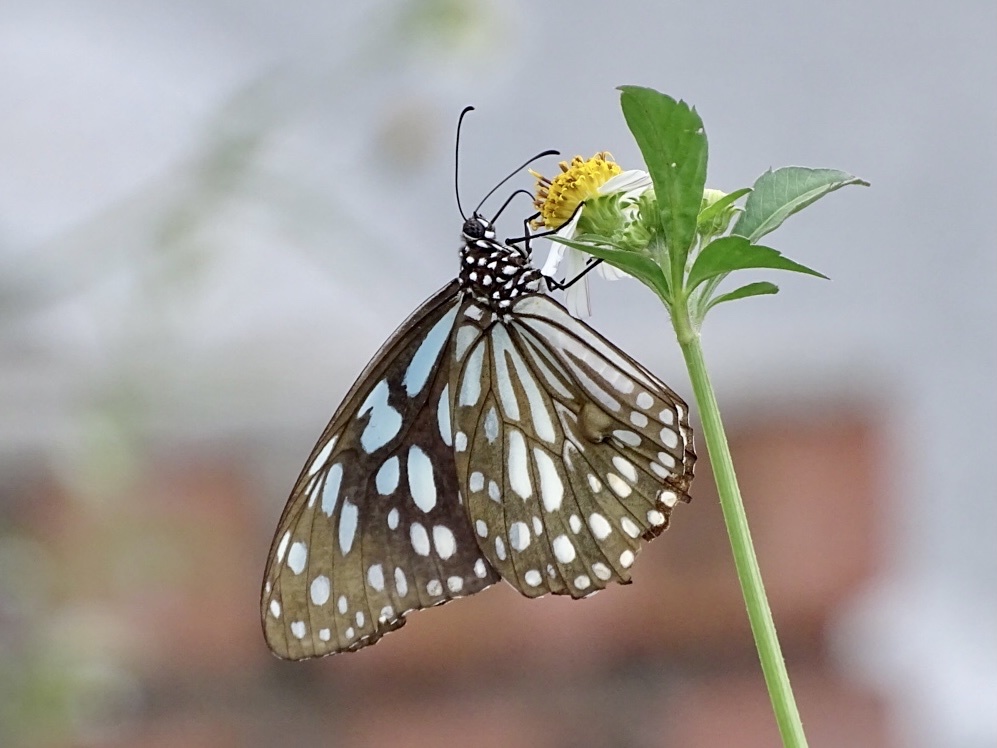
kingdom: Animalia
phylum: Arthropoda
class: Insecta
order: Lepidoptera
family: Nymphalidae
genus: Tirumala
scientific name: Tirumala limniace
